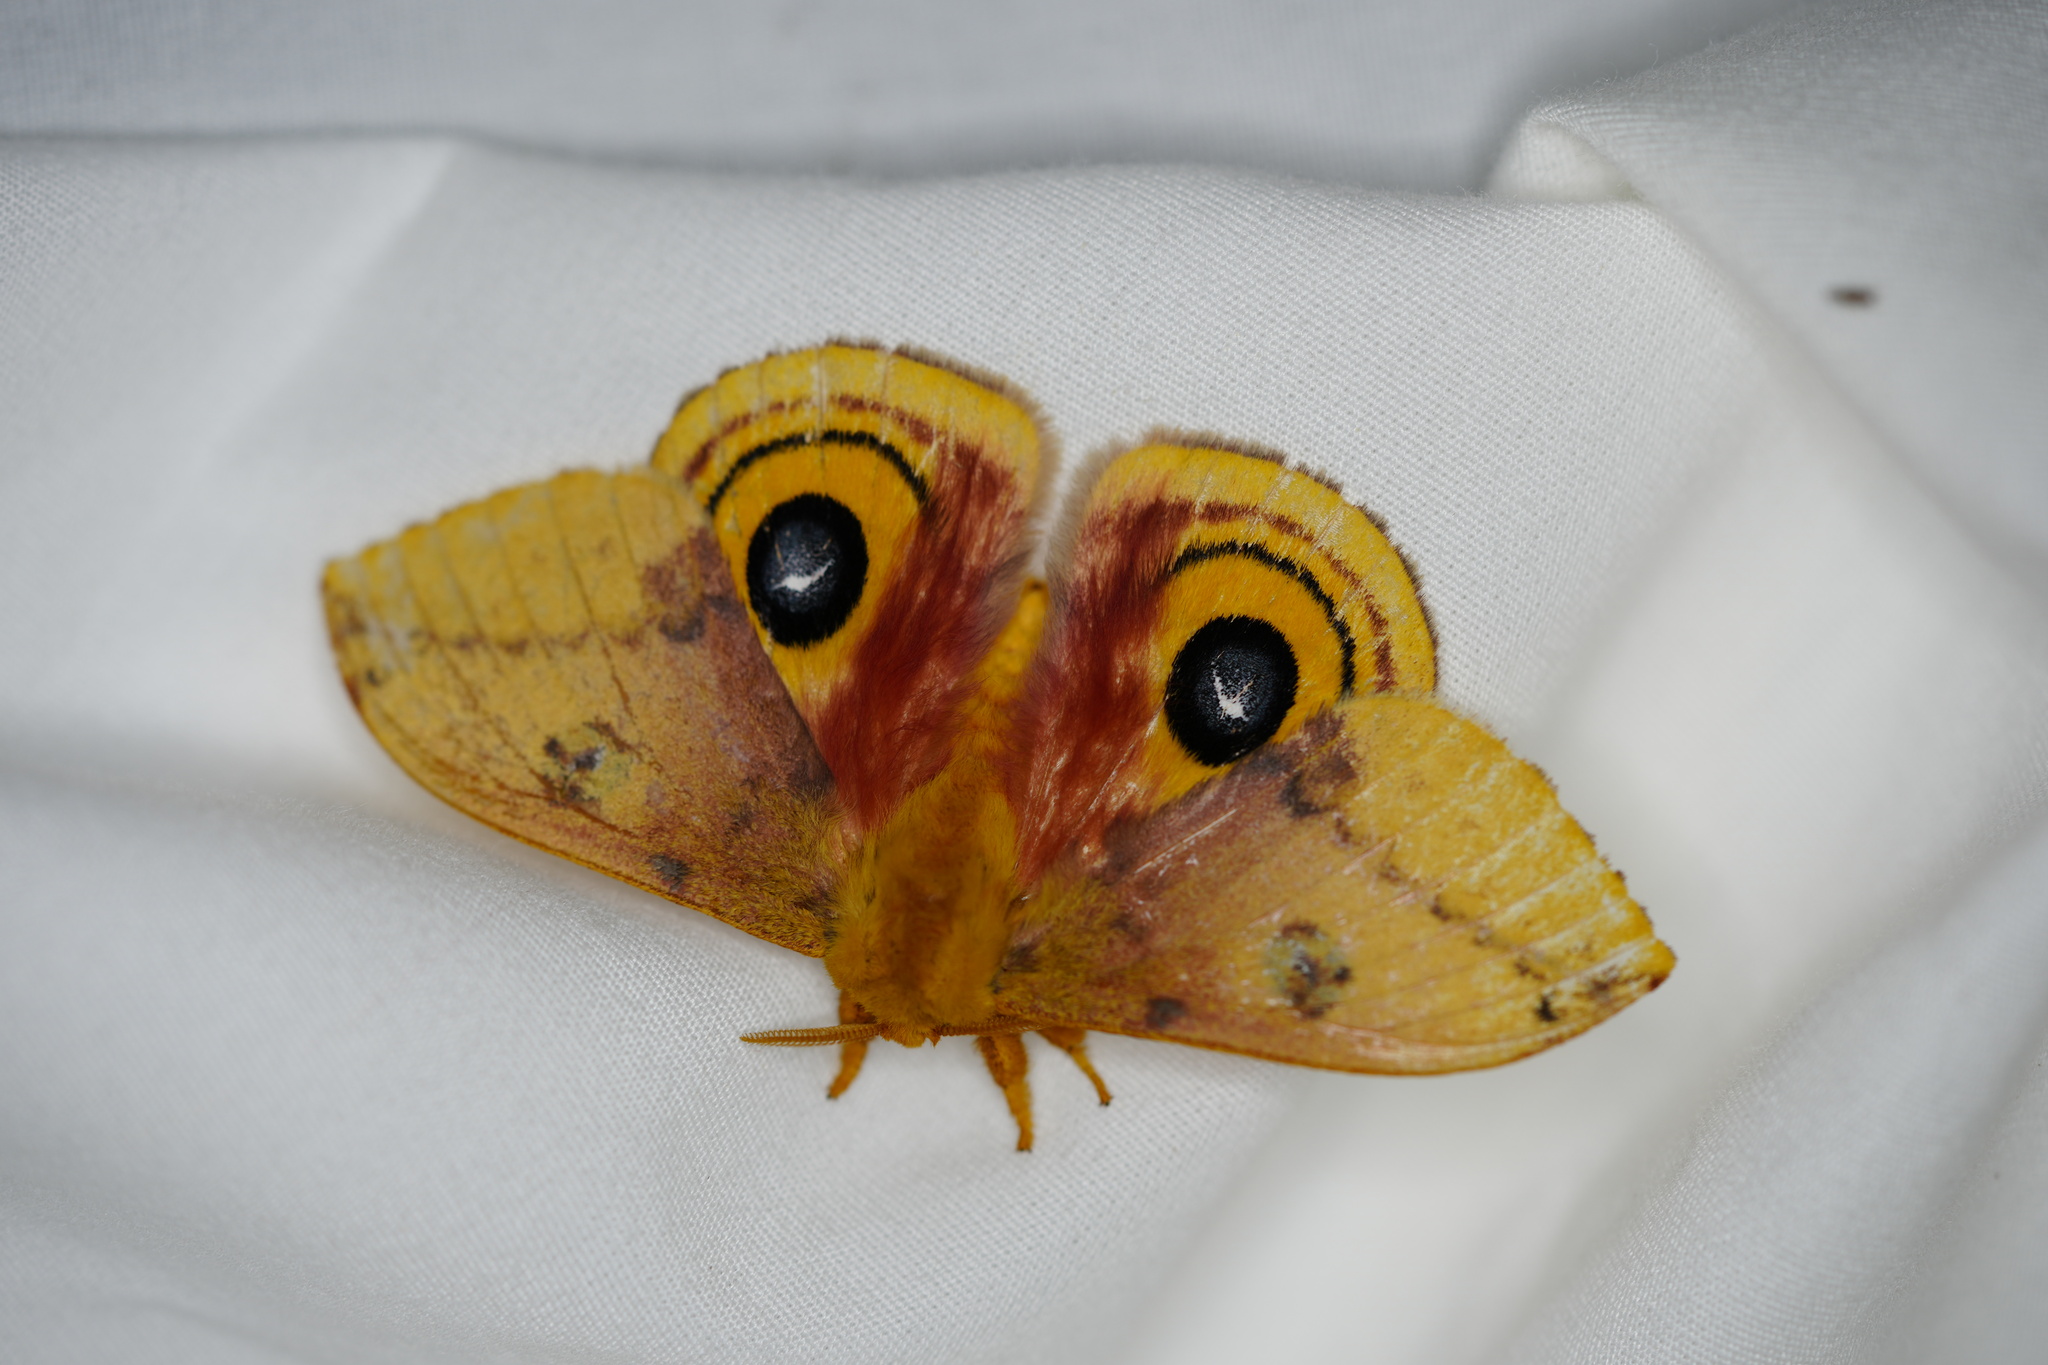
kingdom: Animalia
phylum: Arthropoda
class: Insecta
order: Lepidoptera
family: Saturniidae
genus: Automeris
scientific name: Automeris io
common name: Io moth
